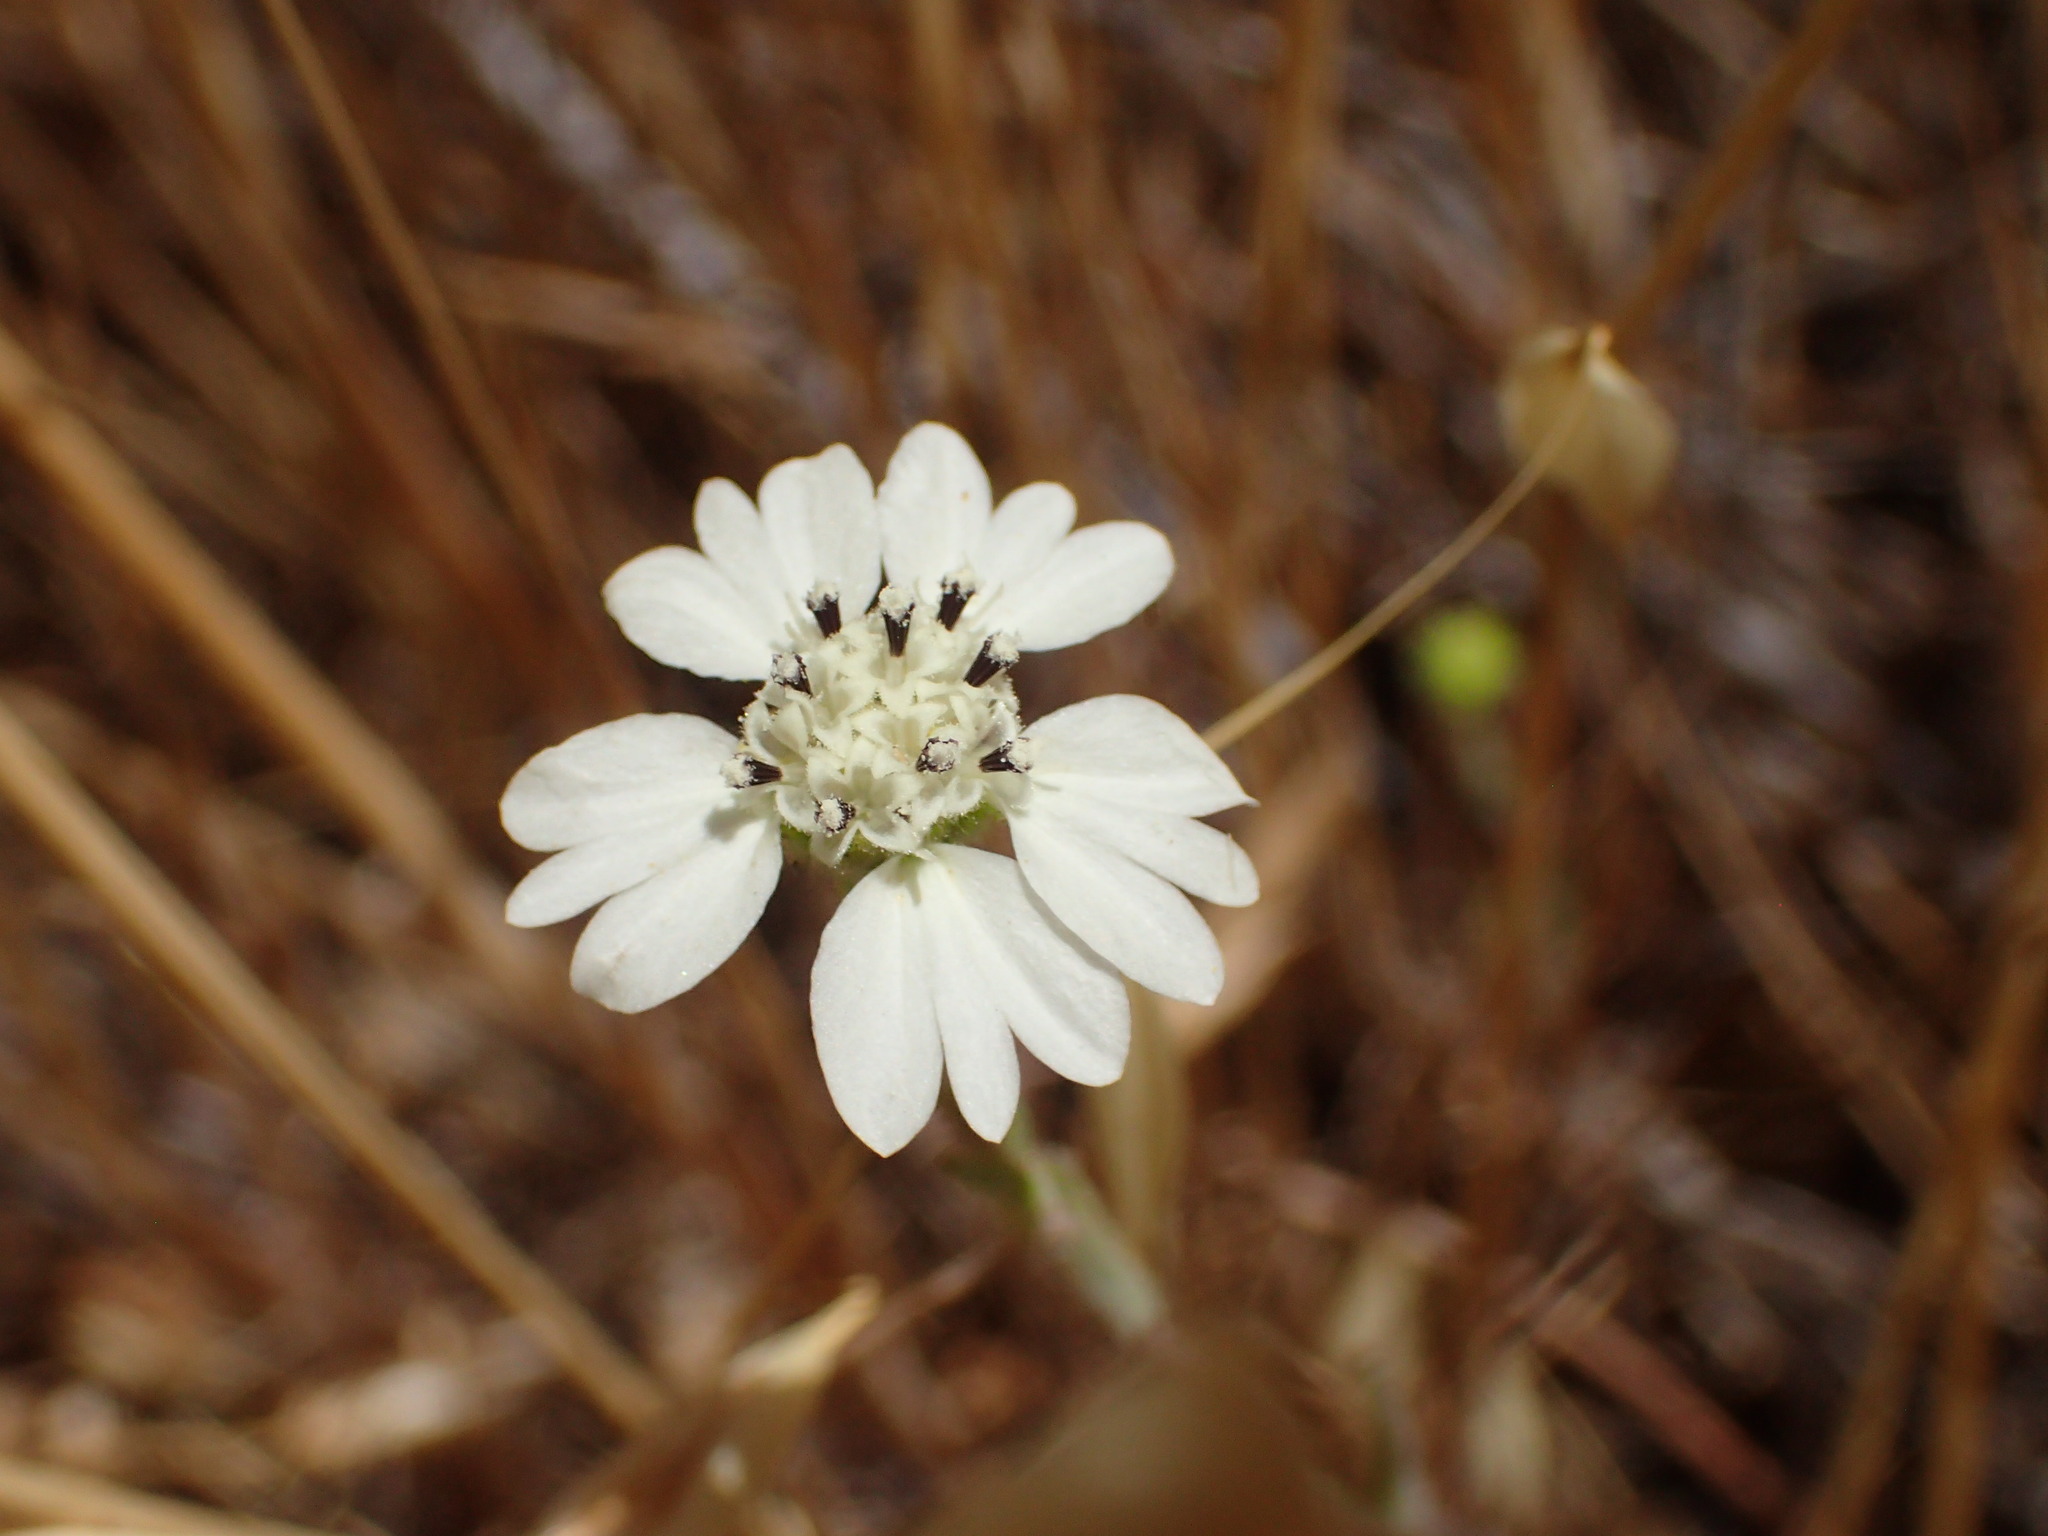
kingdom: Plantae
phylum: Tracheophyta
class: Magnoliopsida
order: Asterales
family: Asteraceae
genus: Hemizonia
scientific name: Hemizonia congesta
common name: Hayfield tarweed
